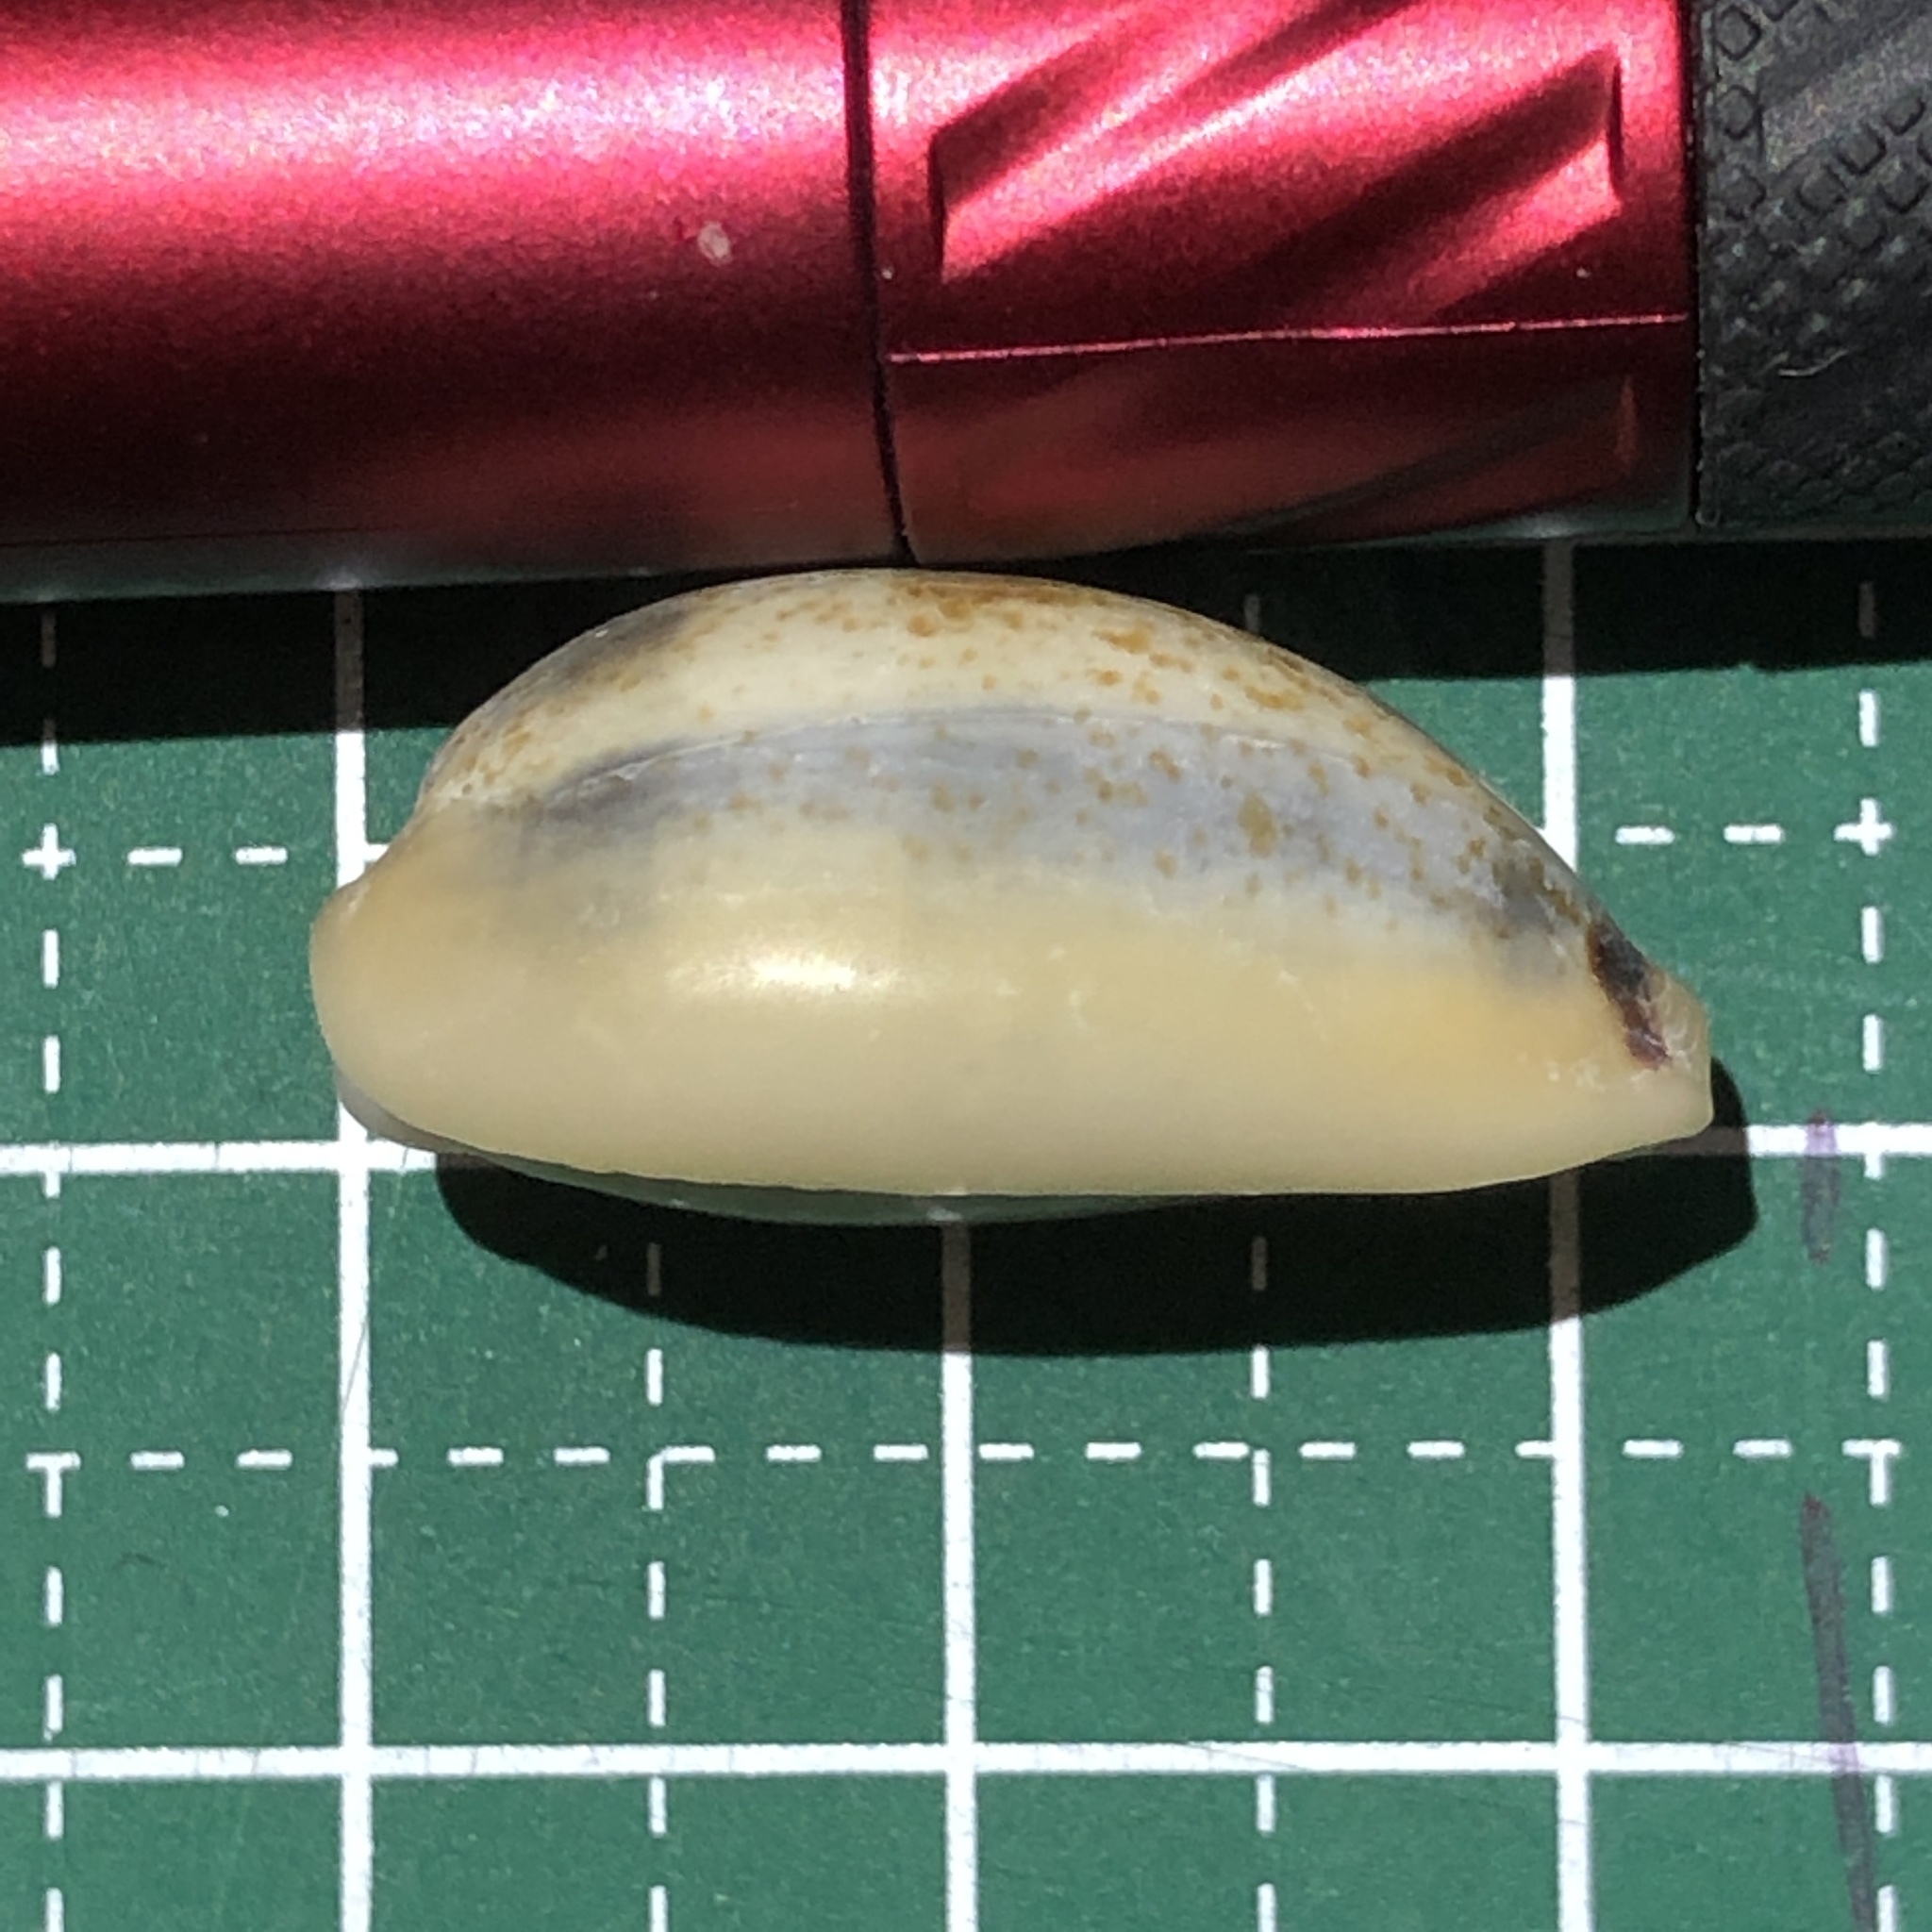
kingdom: Animalia
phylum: Mollusca
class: Gastropoda
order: Littorinimorpha
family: Cypraeidae
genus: Erronea
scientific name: Erronea errones
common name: Mistaken cowrie
